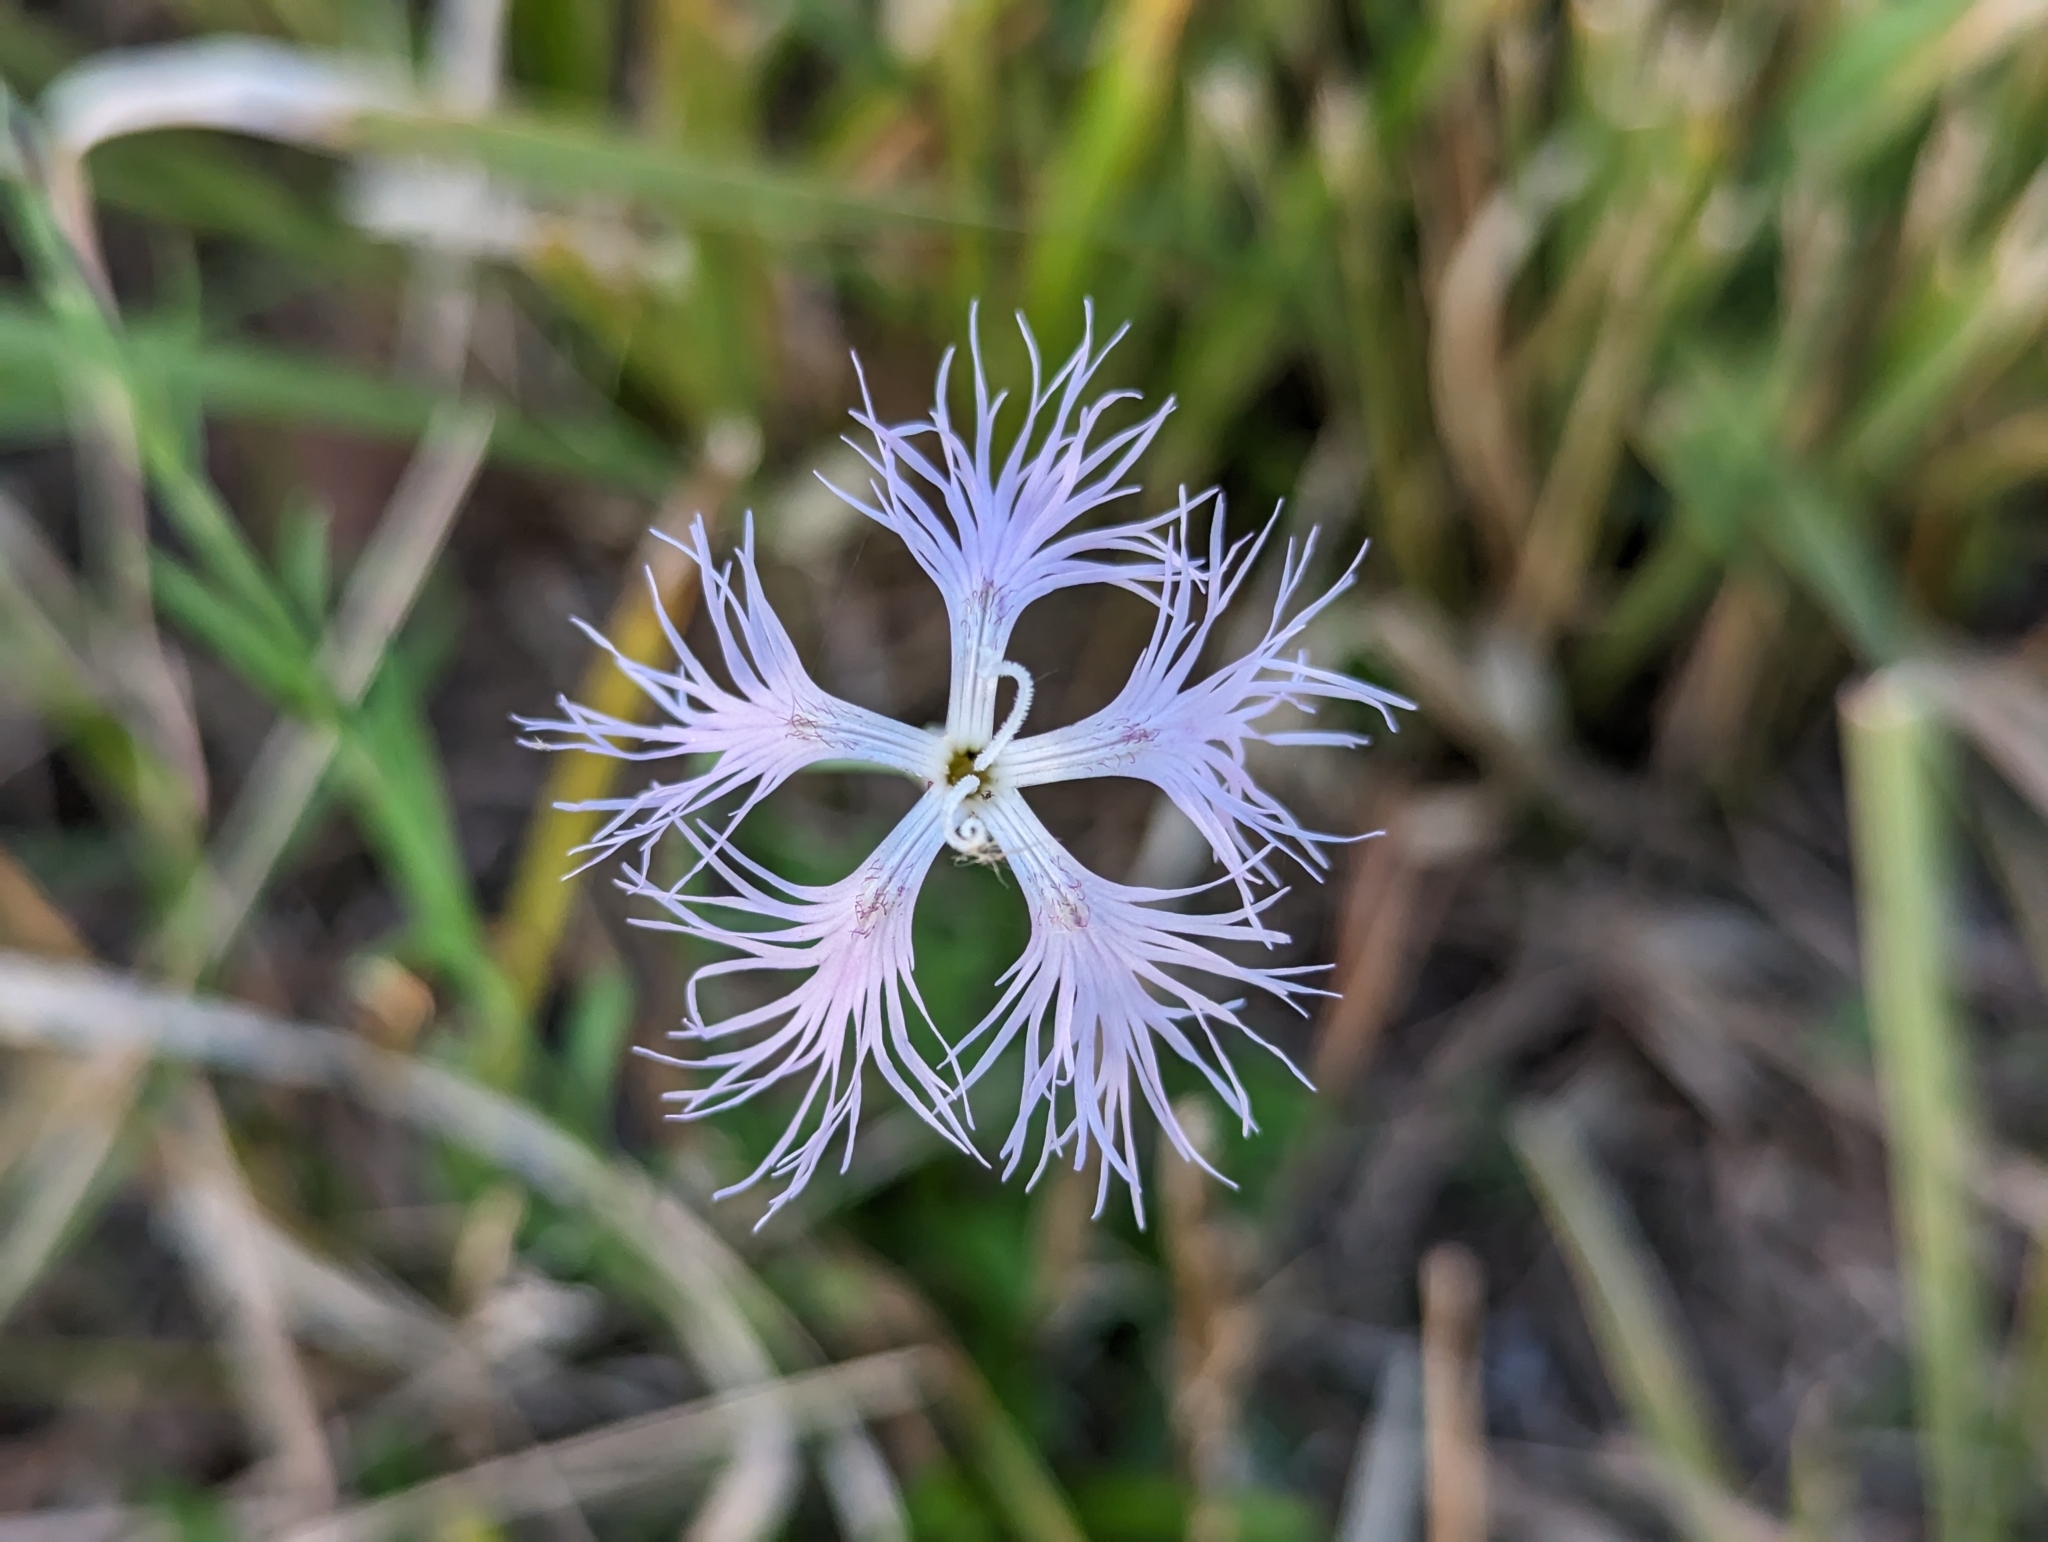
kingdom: Plantae
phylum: Tracheophyta
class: Magnoliopsida
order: Caryophyllales
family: Caryophyllaceae
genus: Dianthus
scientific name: Dianthus superbus
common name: Fringed pink
